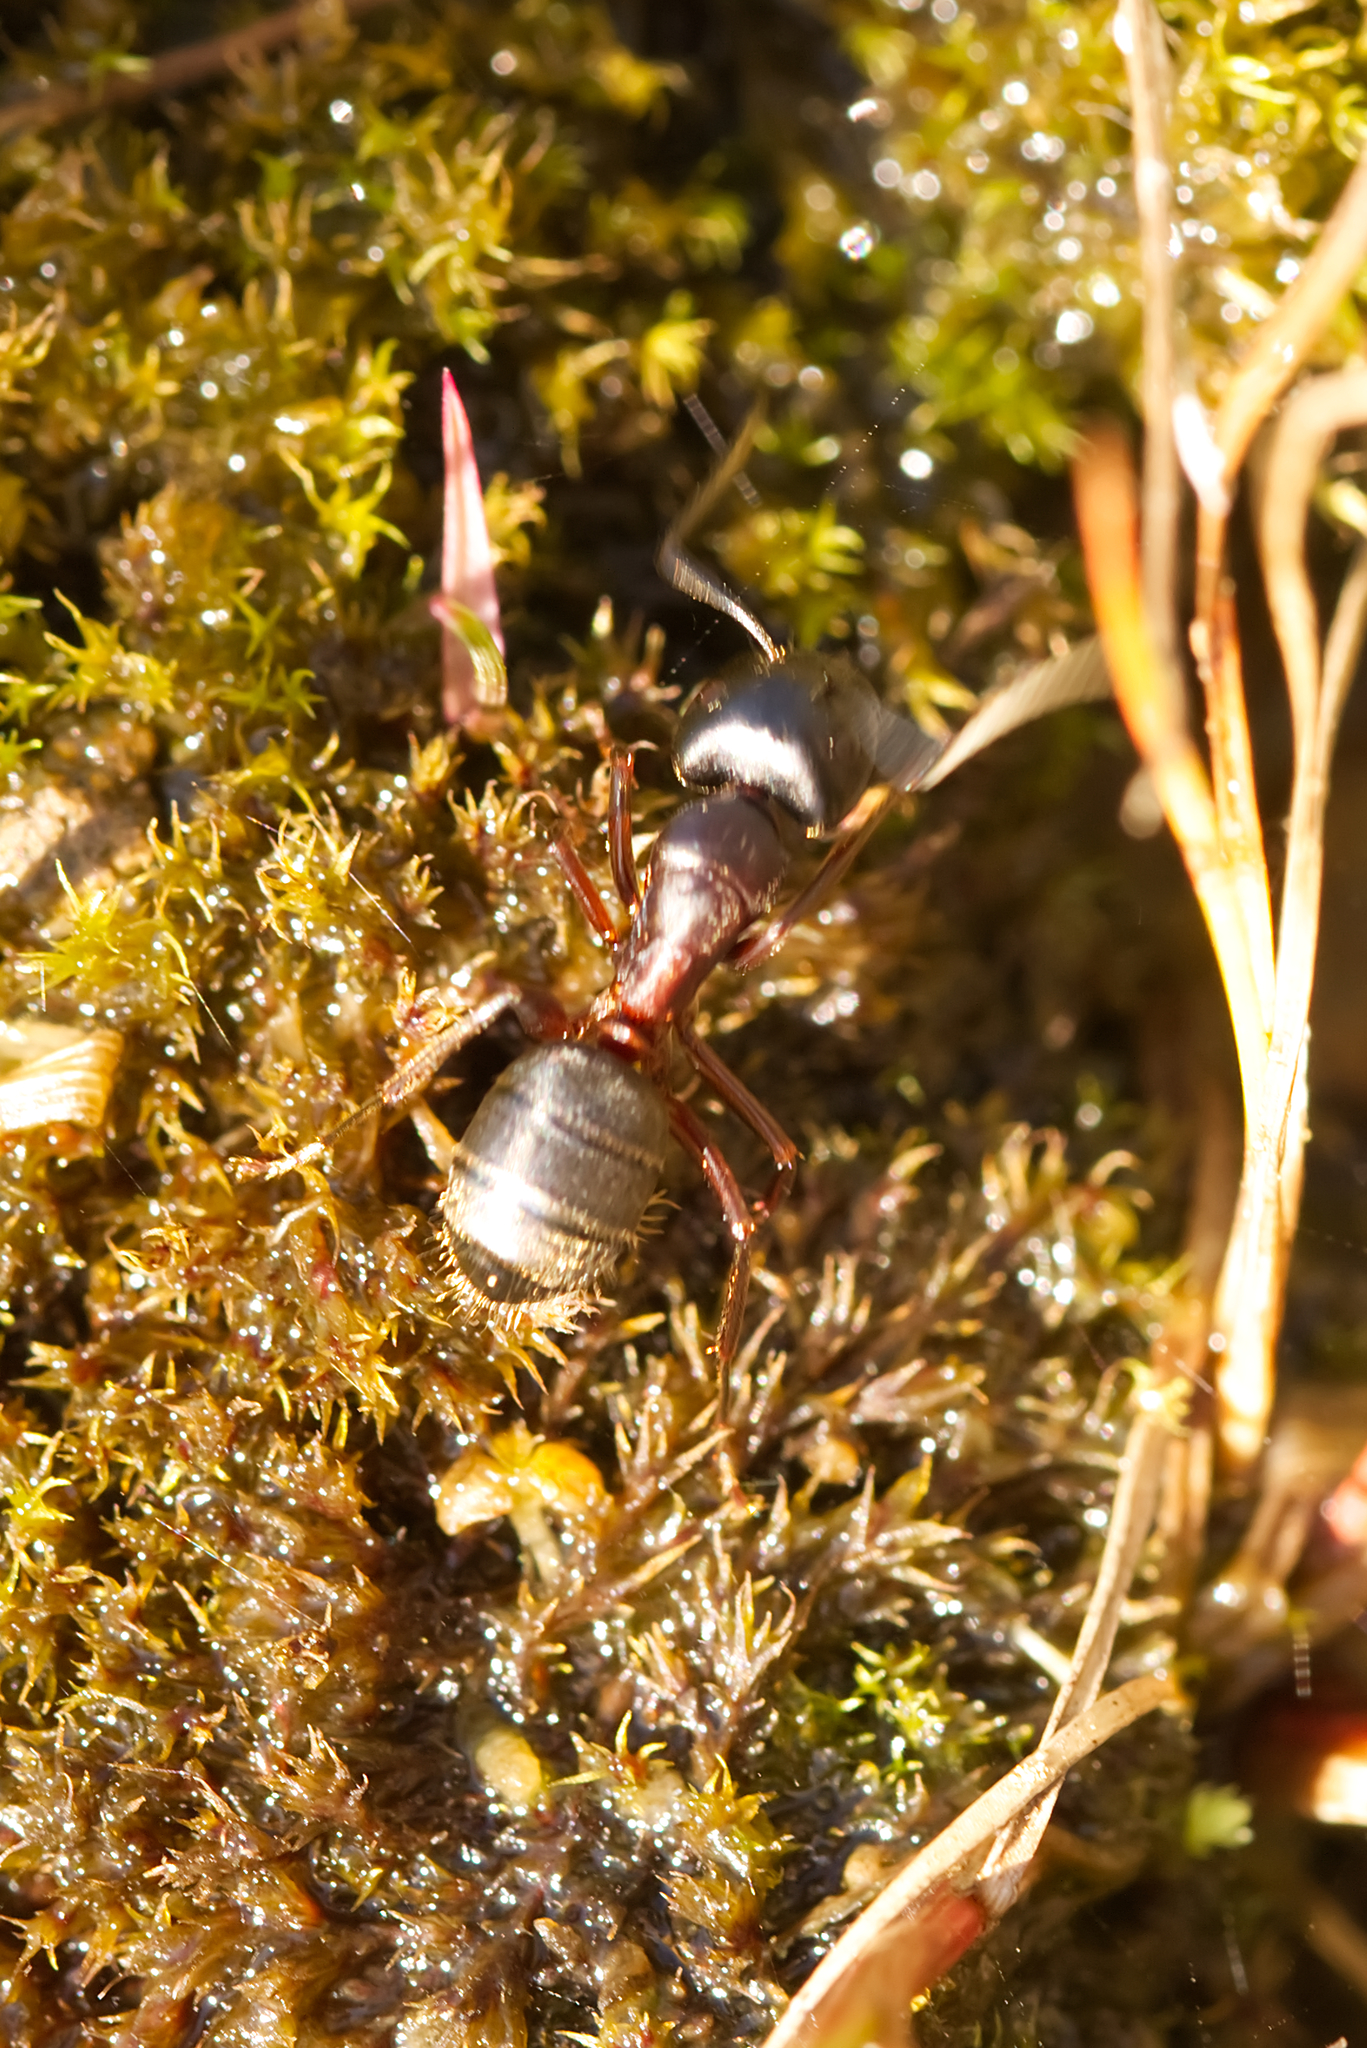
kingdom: Animalia
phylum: Arthropoda
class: Insecta
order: Hymenoptera
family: Formicidae
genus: Camponotus
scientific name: Camponotus herculeanus
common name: Hercules ant
